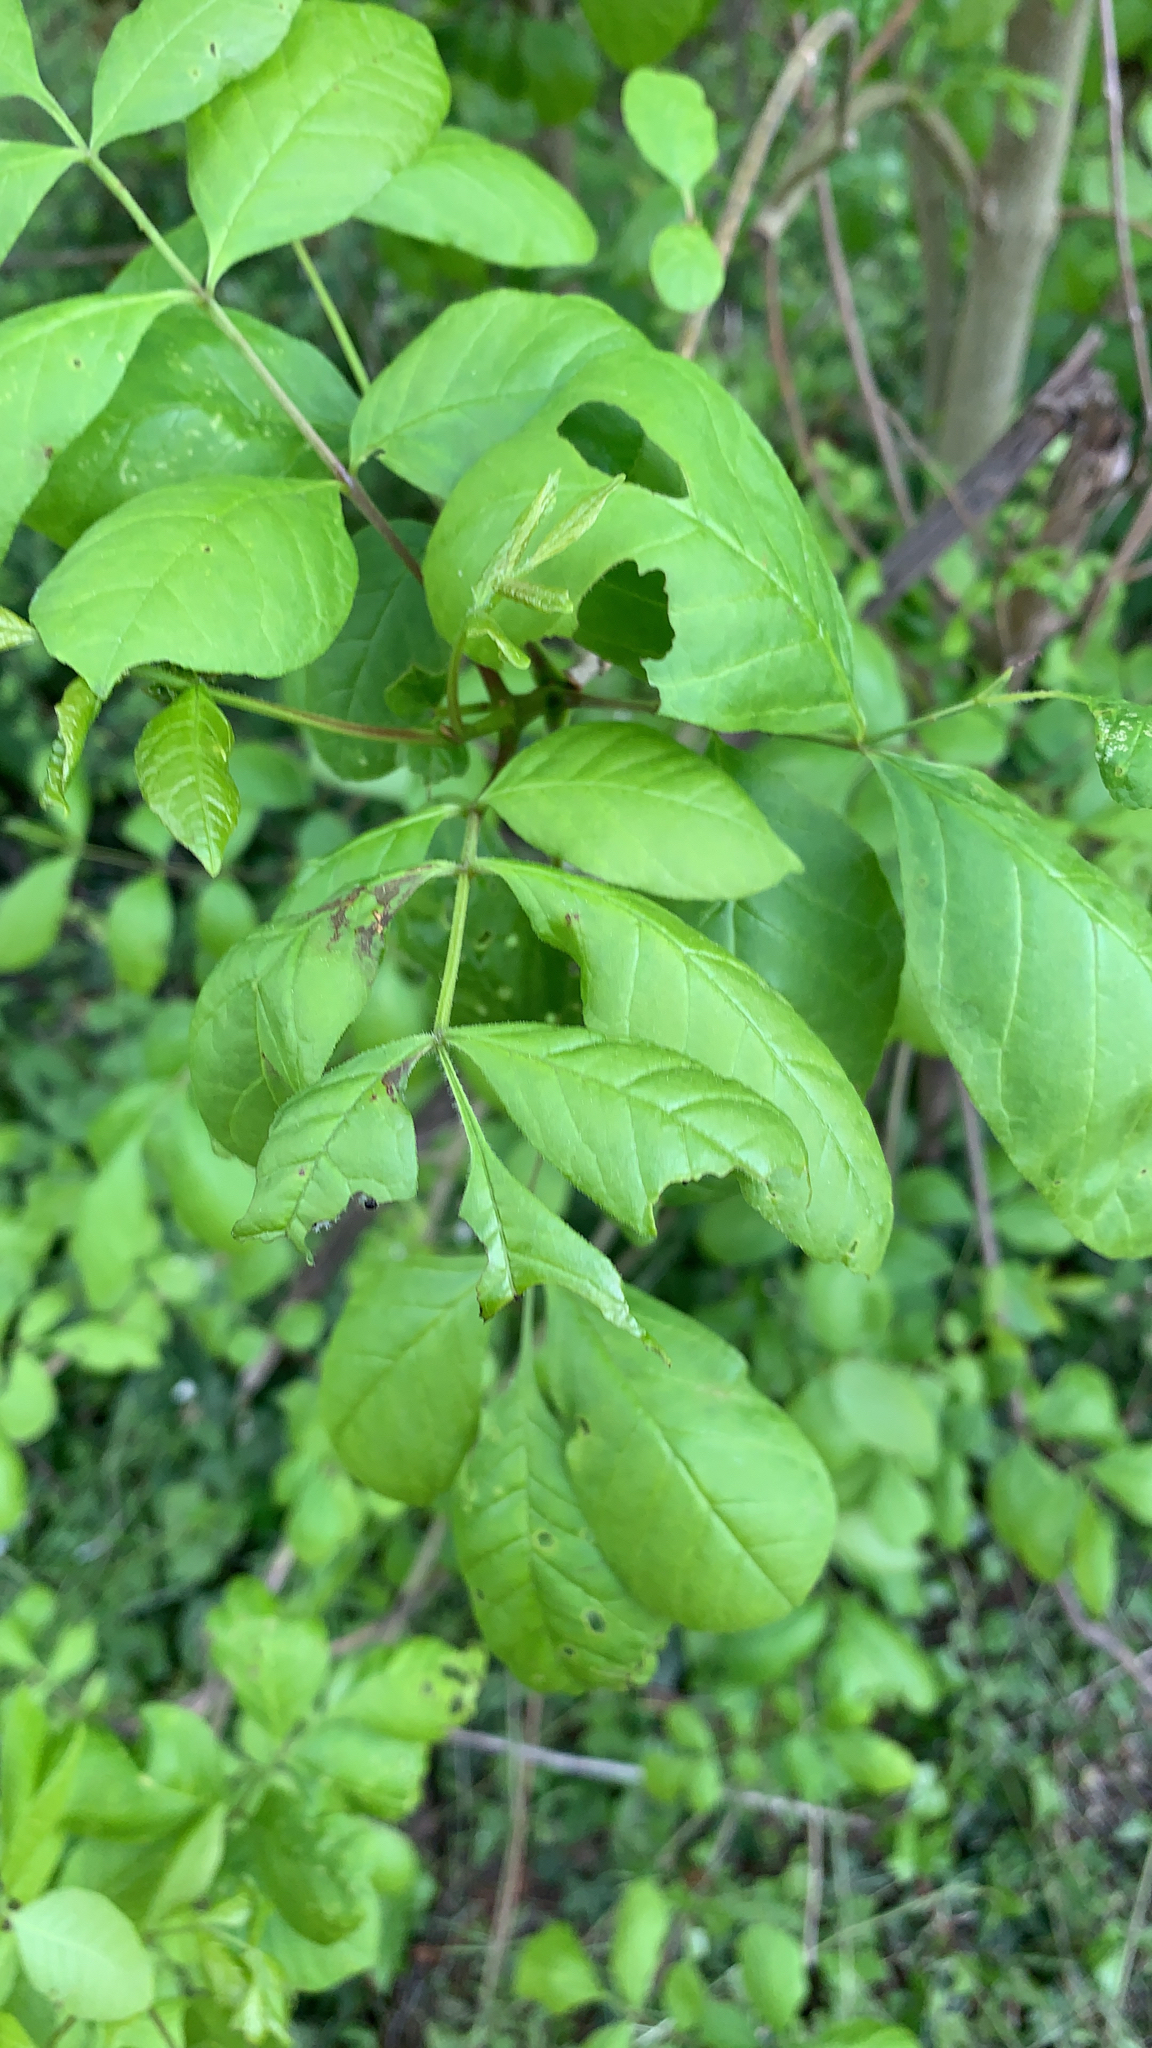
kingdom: Plantae
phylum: Tracheophyta
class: Magnoliopsida
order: Lamiales
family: Oleaceae
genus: Fraxinus
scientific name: Fraxinus latifolia
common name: Oregon ash
